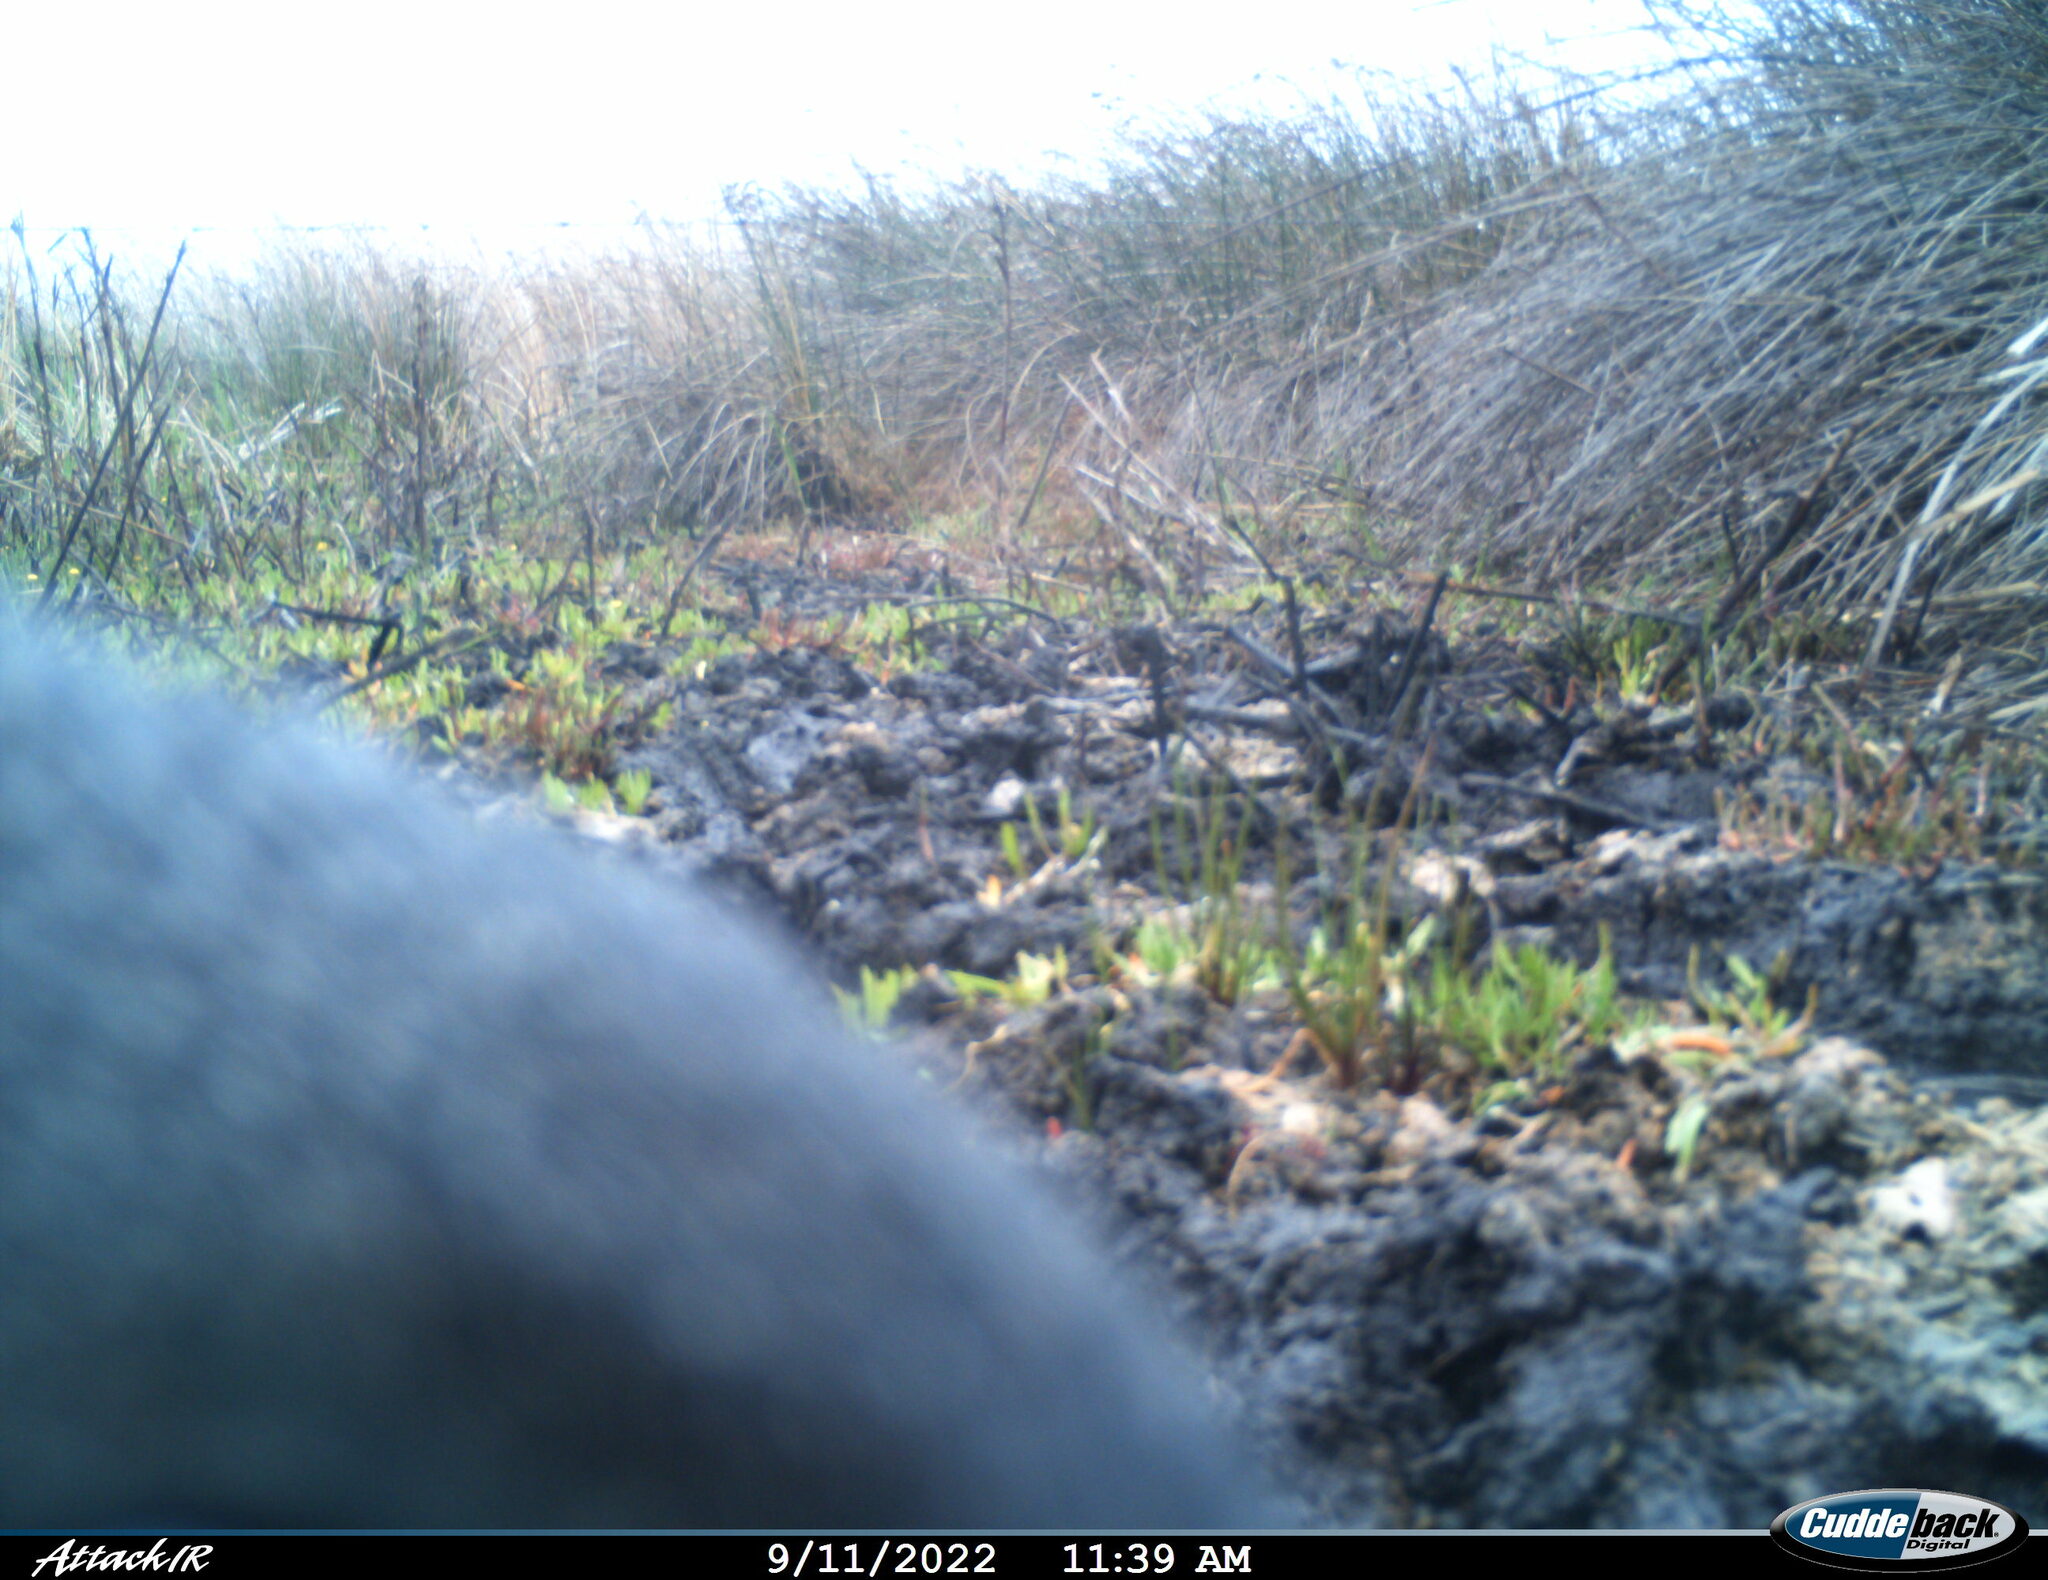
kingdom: Animalia
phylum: Chordata
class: Mammalia
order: Carnivora
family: Herpestidae
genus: Herpestes
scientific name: Herpestes ichneumon
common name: Egyptian mongoose
